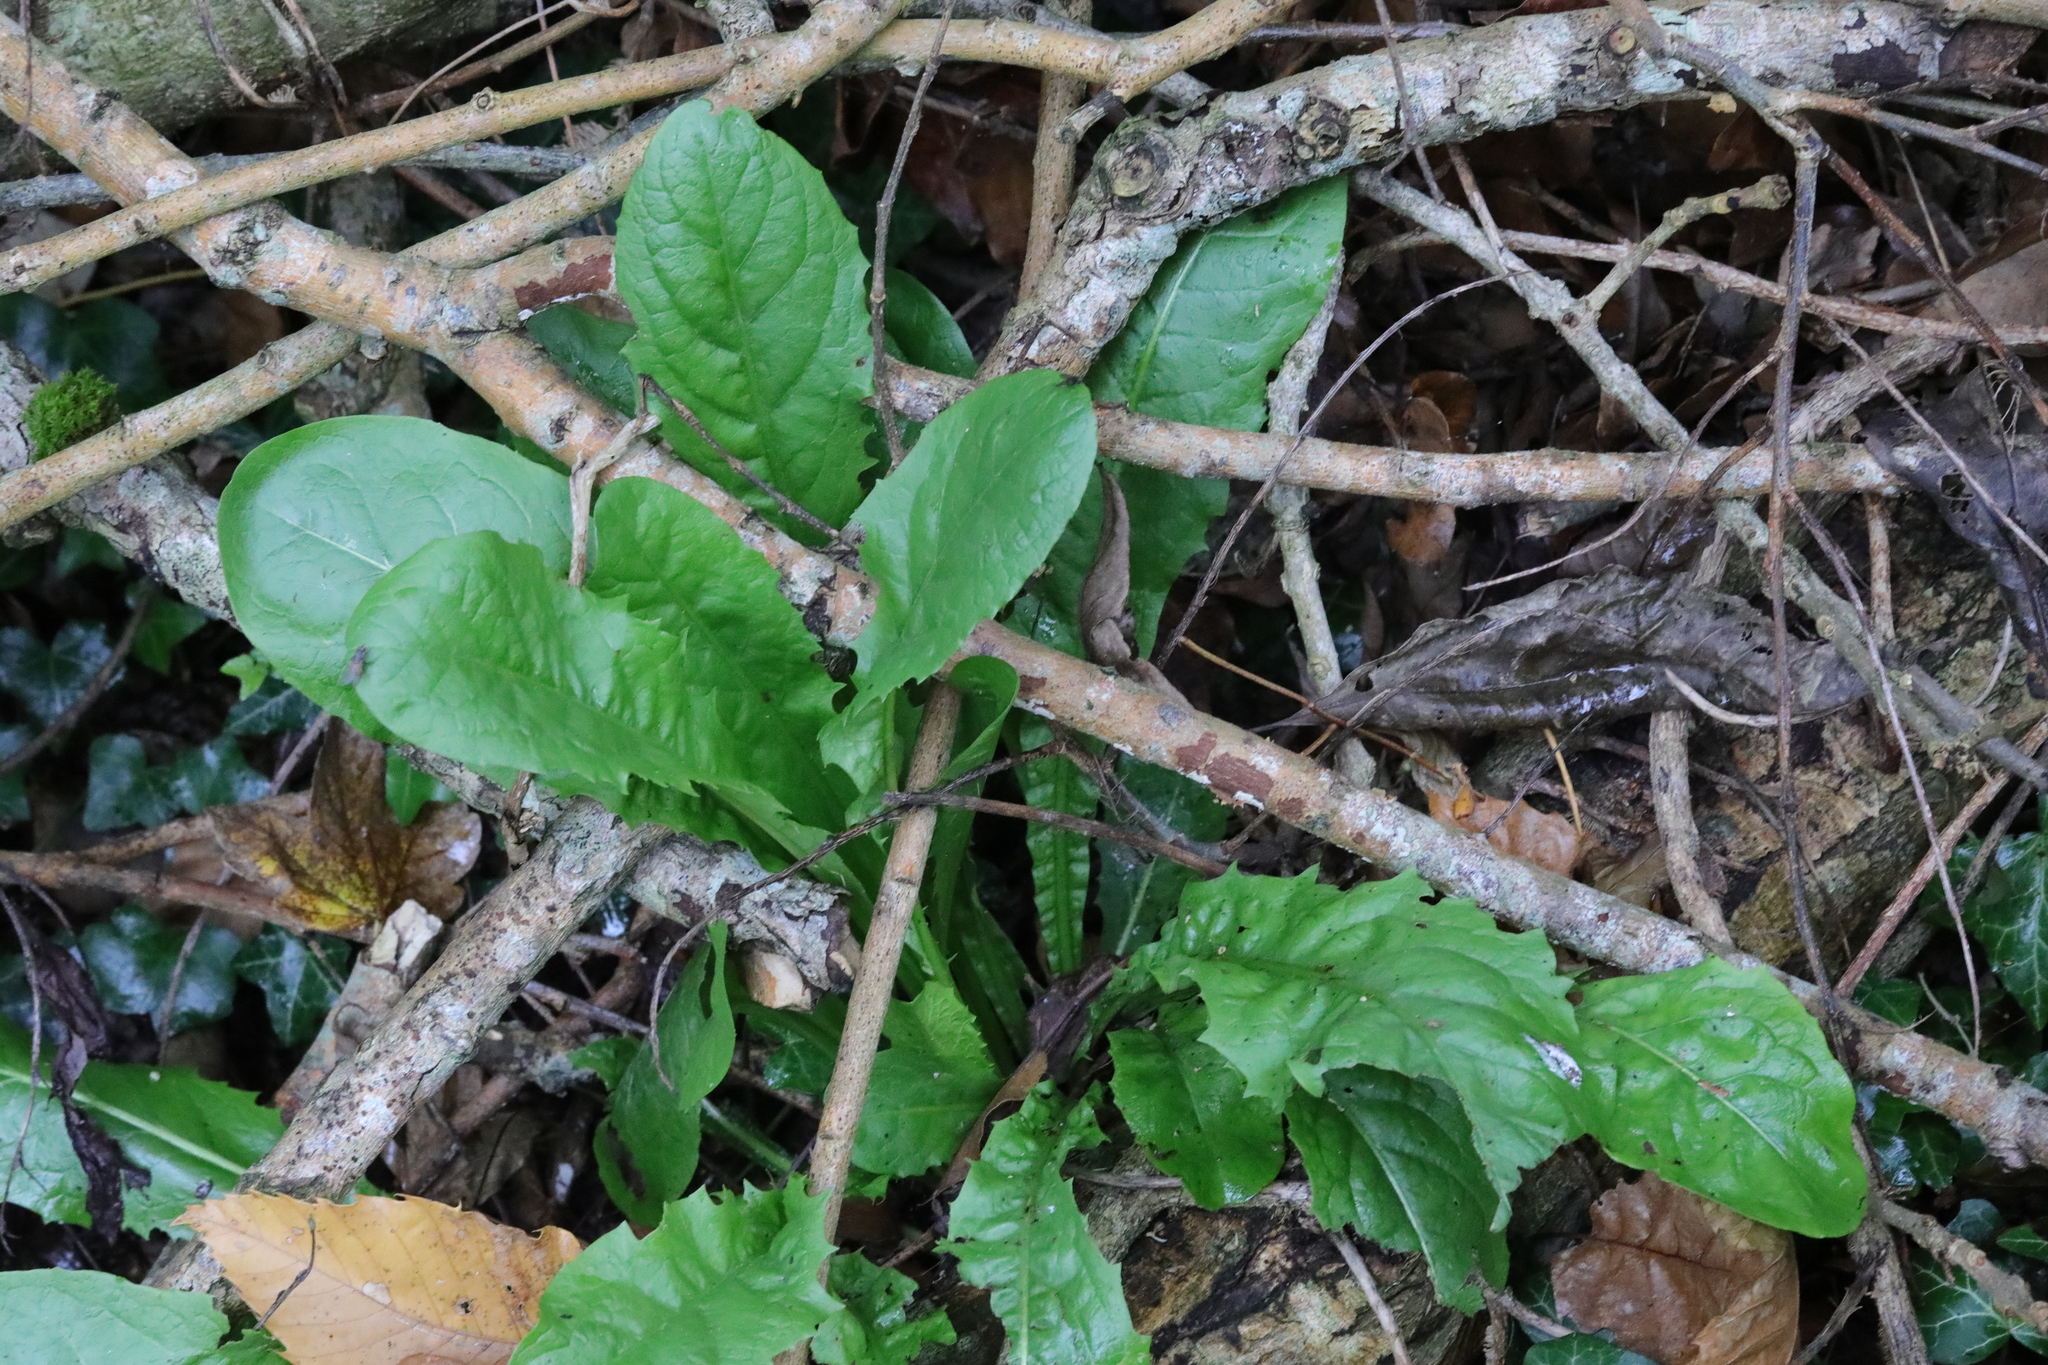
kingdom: Plantae
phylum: Tracheophyta
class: Magnoliopsida
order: Asterales
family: Asteraceae
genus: Taraxacum
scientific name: Taraxacum officinale
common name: Common dandelion
